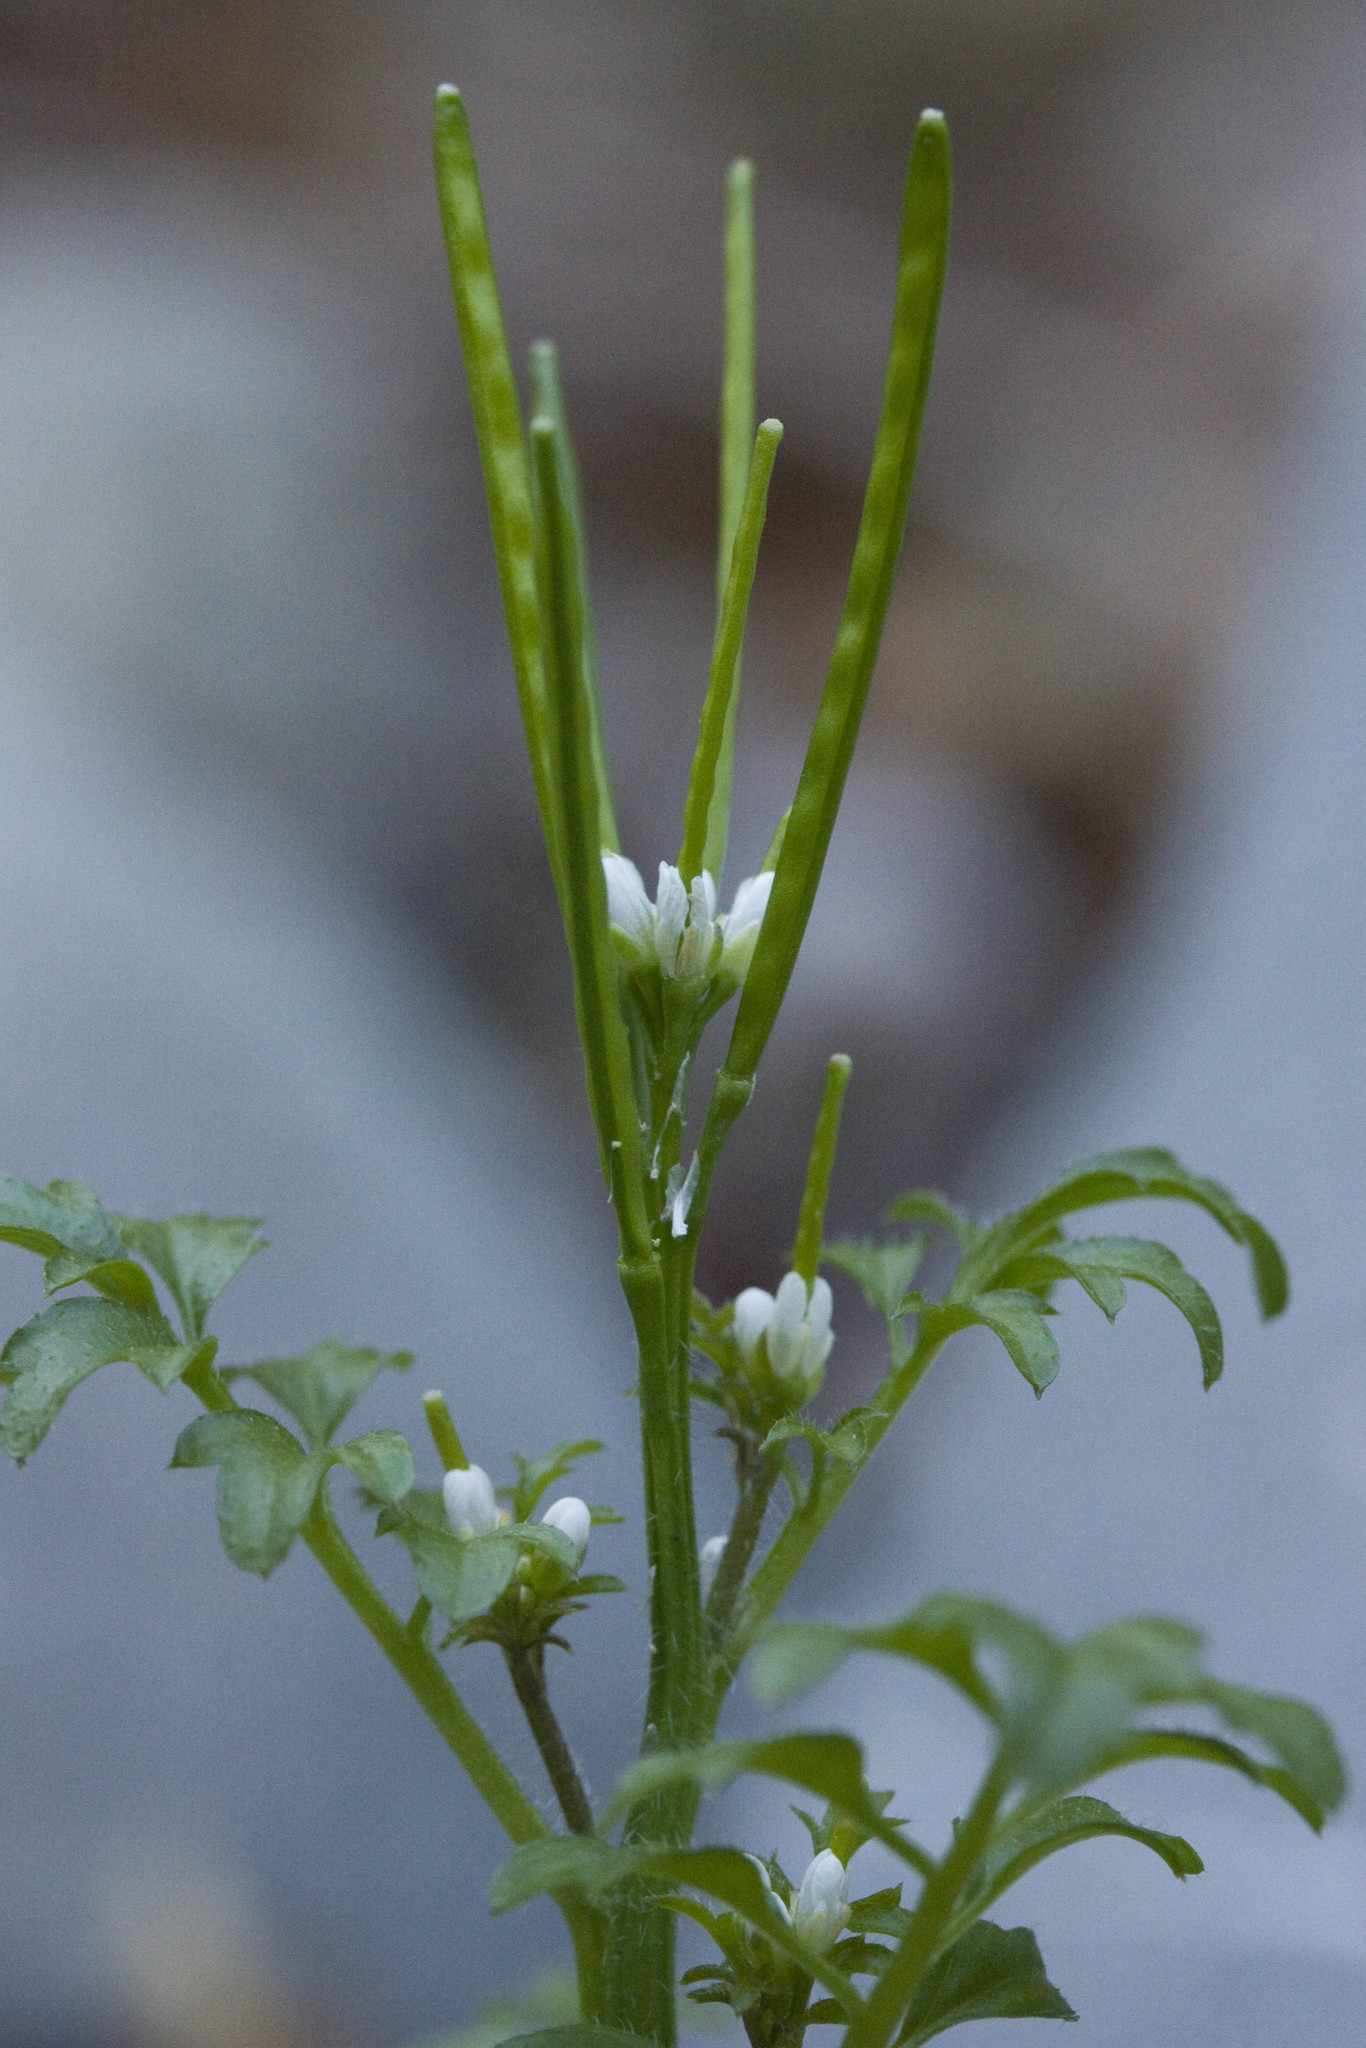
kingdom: Plantae
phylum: Tracheophyta
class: Magnoliopsida
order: Brassicales
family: Brassicaceae
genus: Cardamine
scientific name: Cardamine oligosperma
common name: Idaho bittercress
